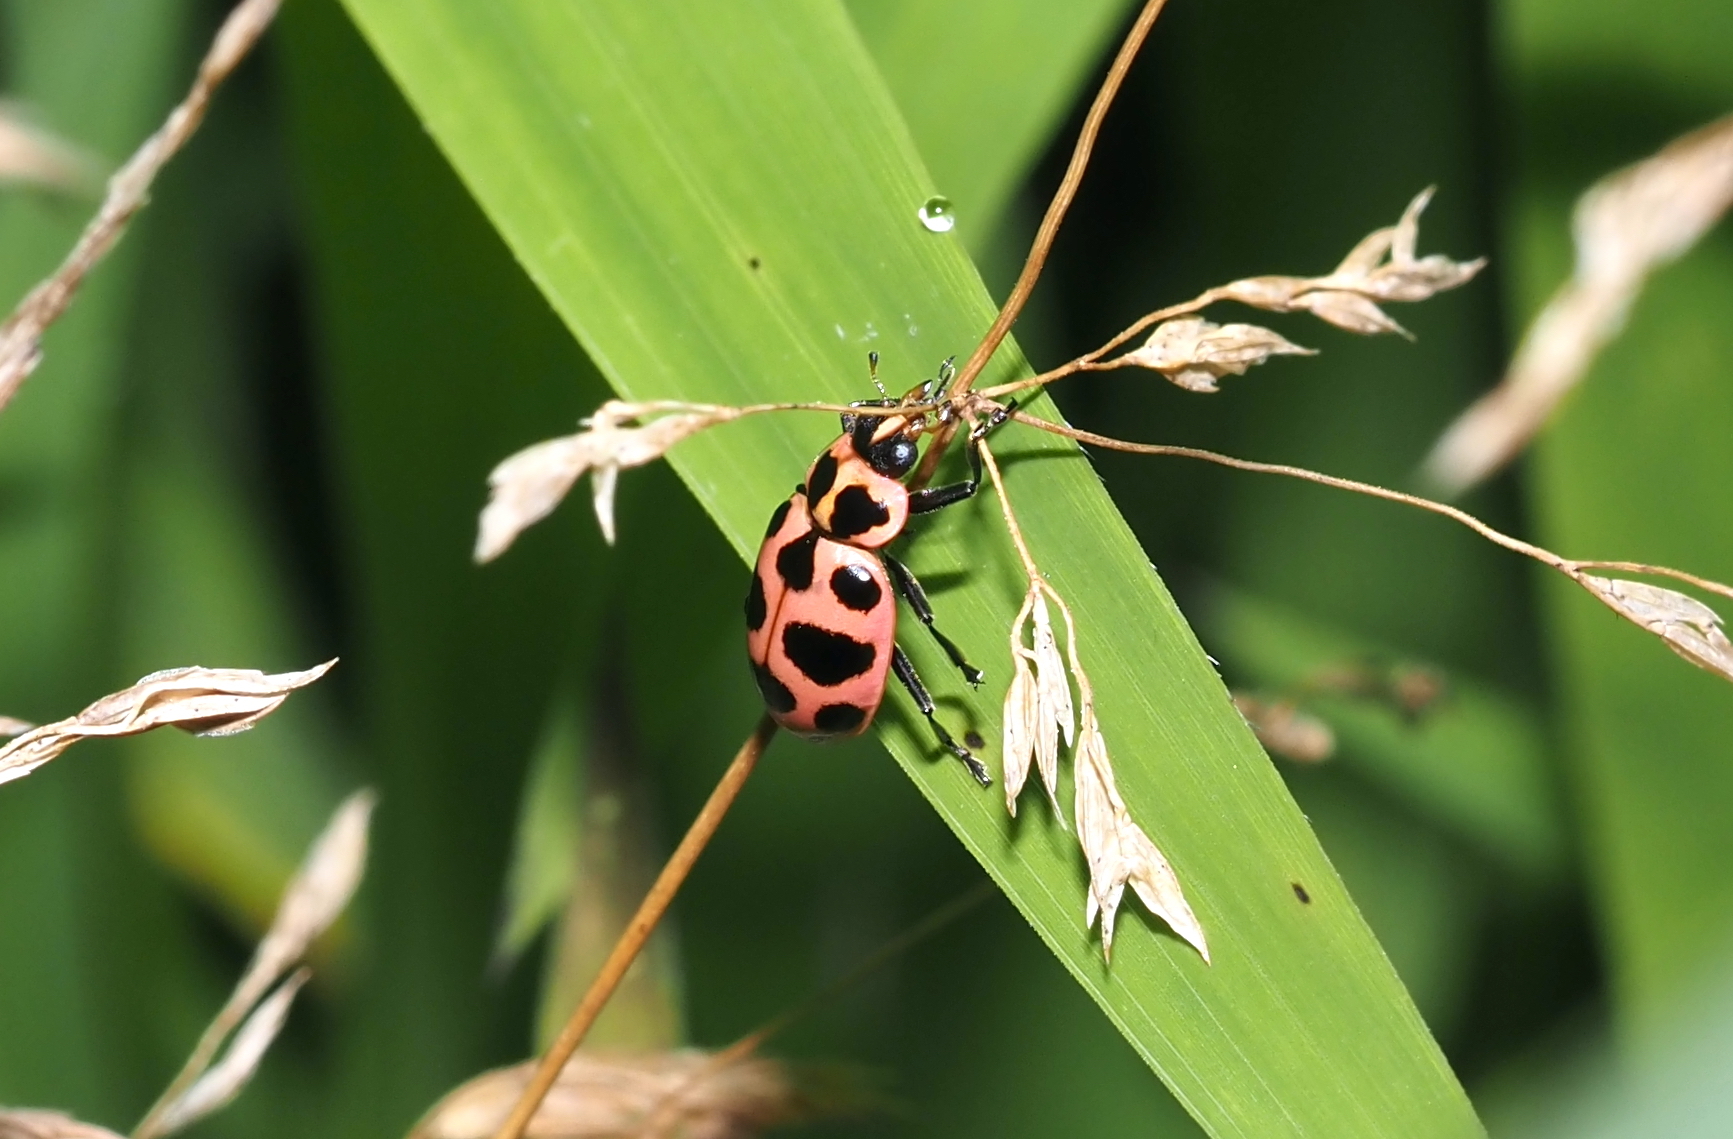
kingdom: Animalia
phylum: Arthropoda
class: Insecta
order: Coleoptera
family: Coccinellidae
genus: Coleomegilla
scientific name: Coleomegilla maculata
